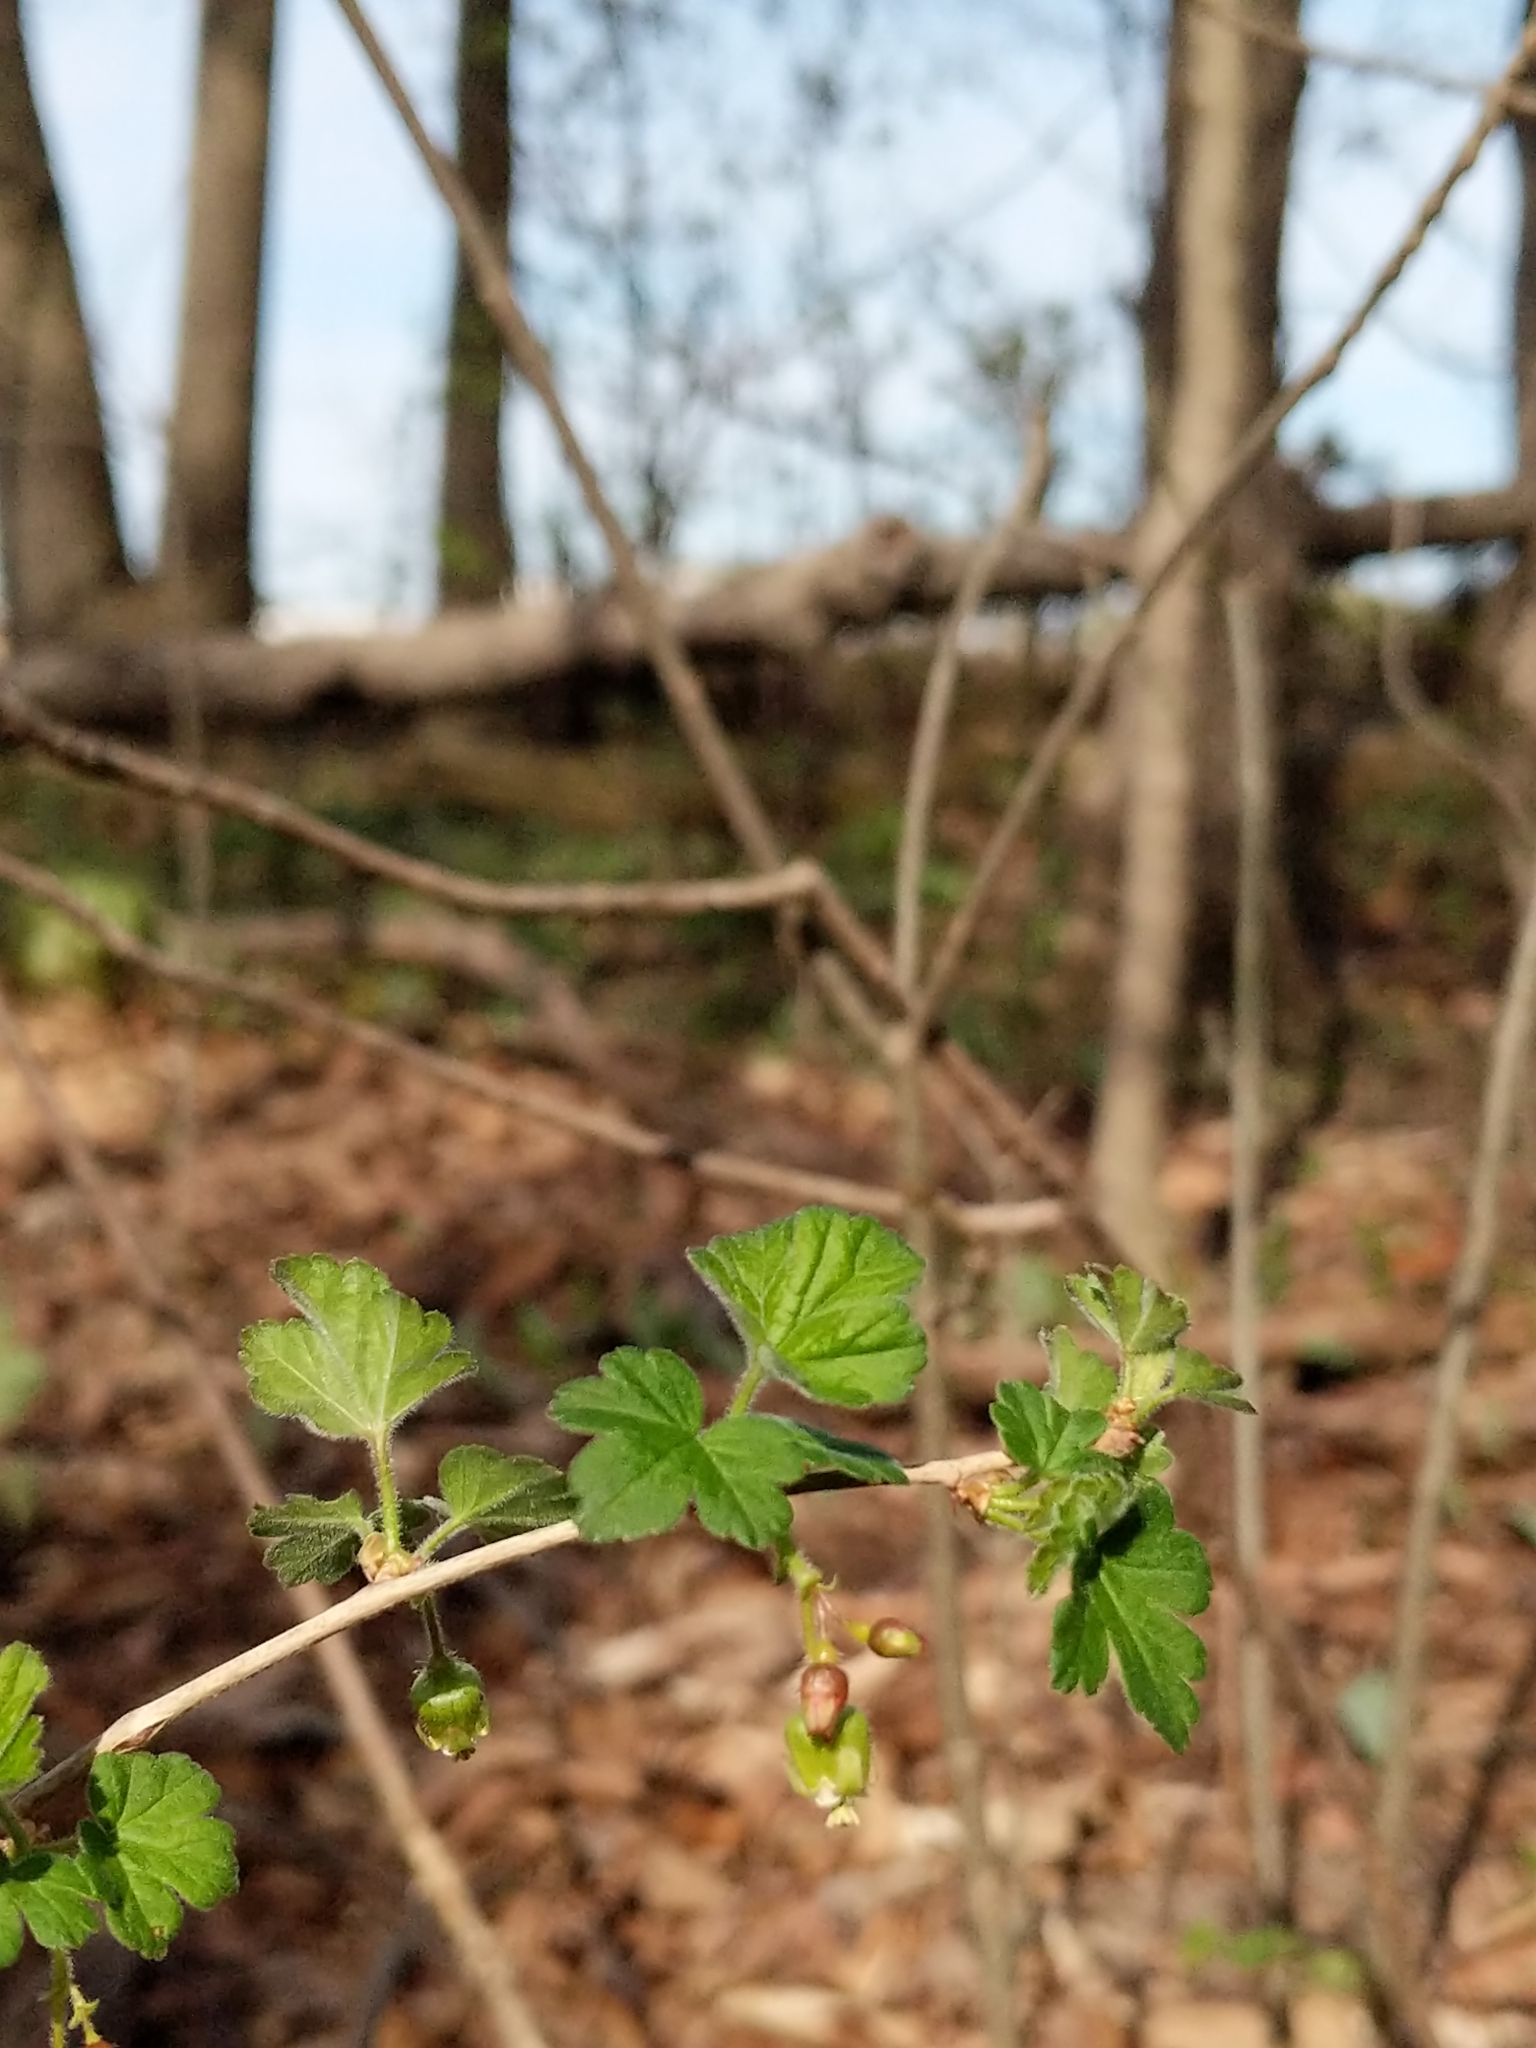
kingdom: Plantae
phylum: Tracheophyta
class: Magnoliopsida
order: Saxifragales
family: Grossulariaceae
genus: Ribes
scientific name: Ribes cynosbati
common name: American gooseberry
